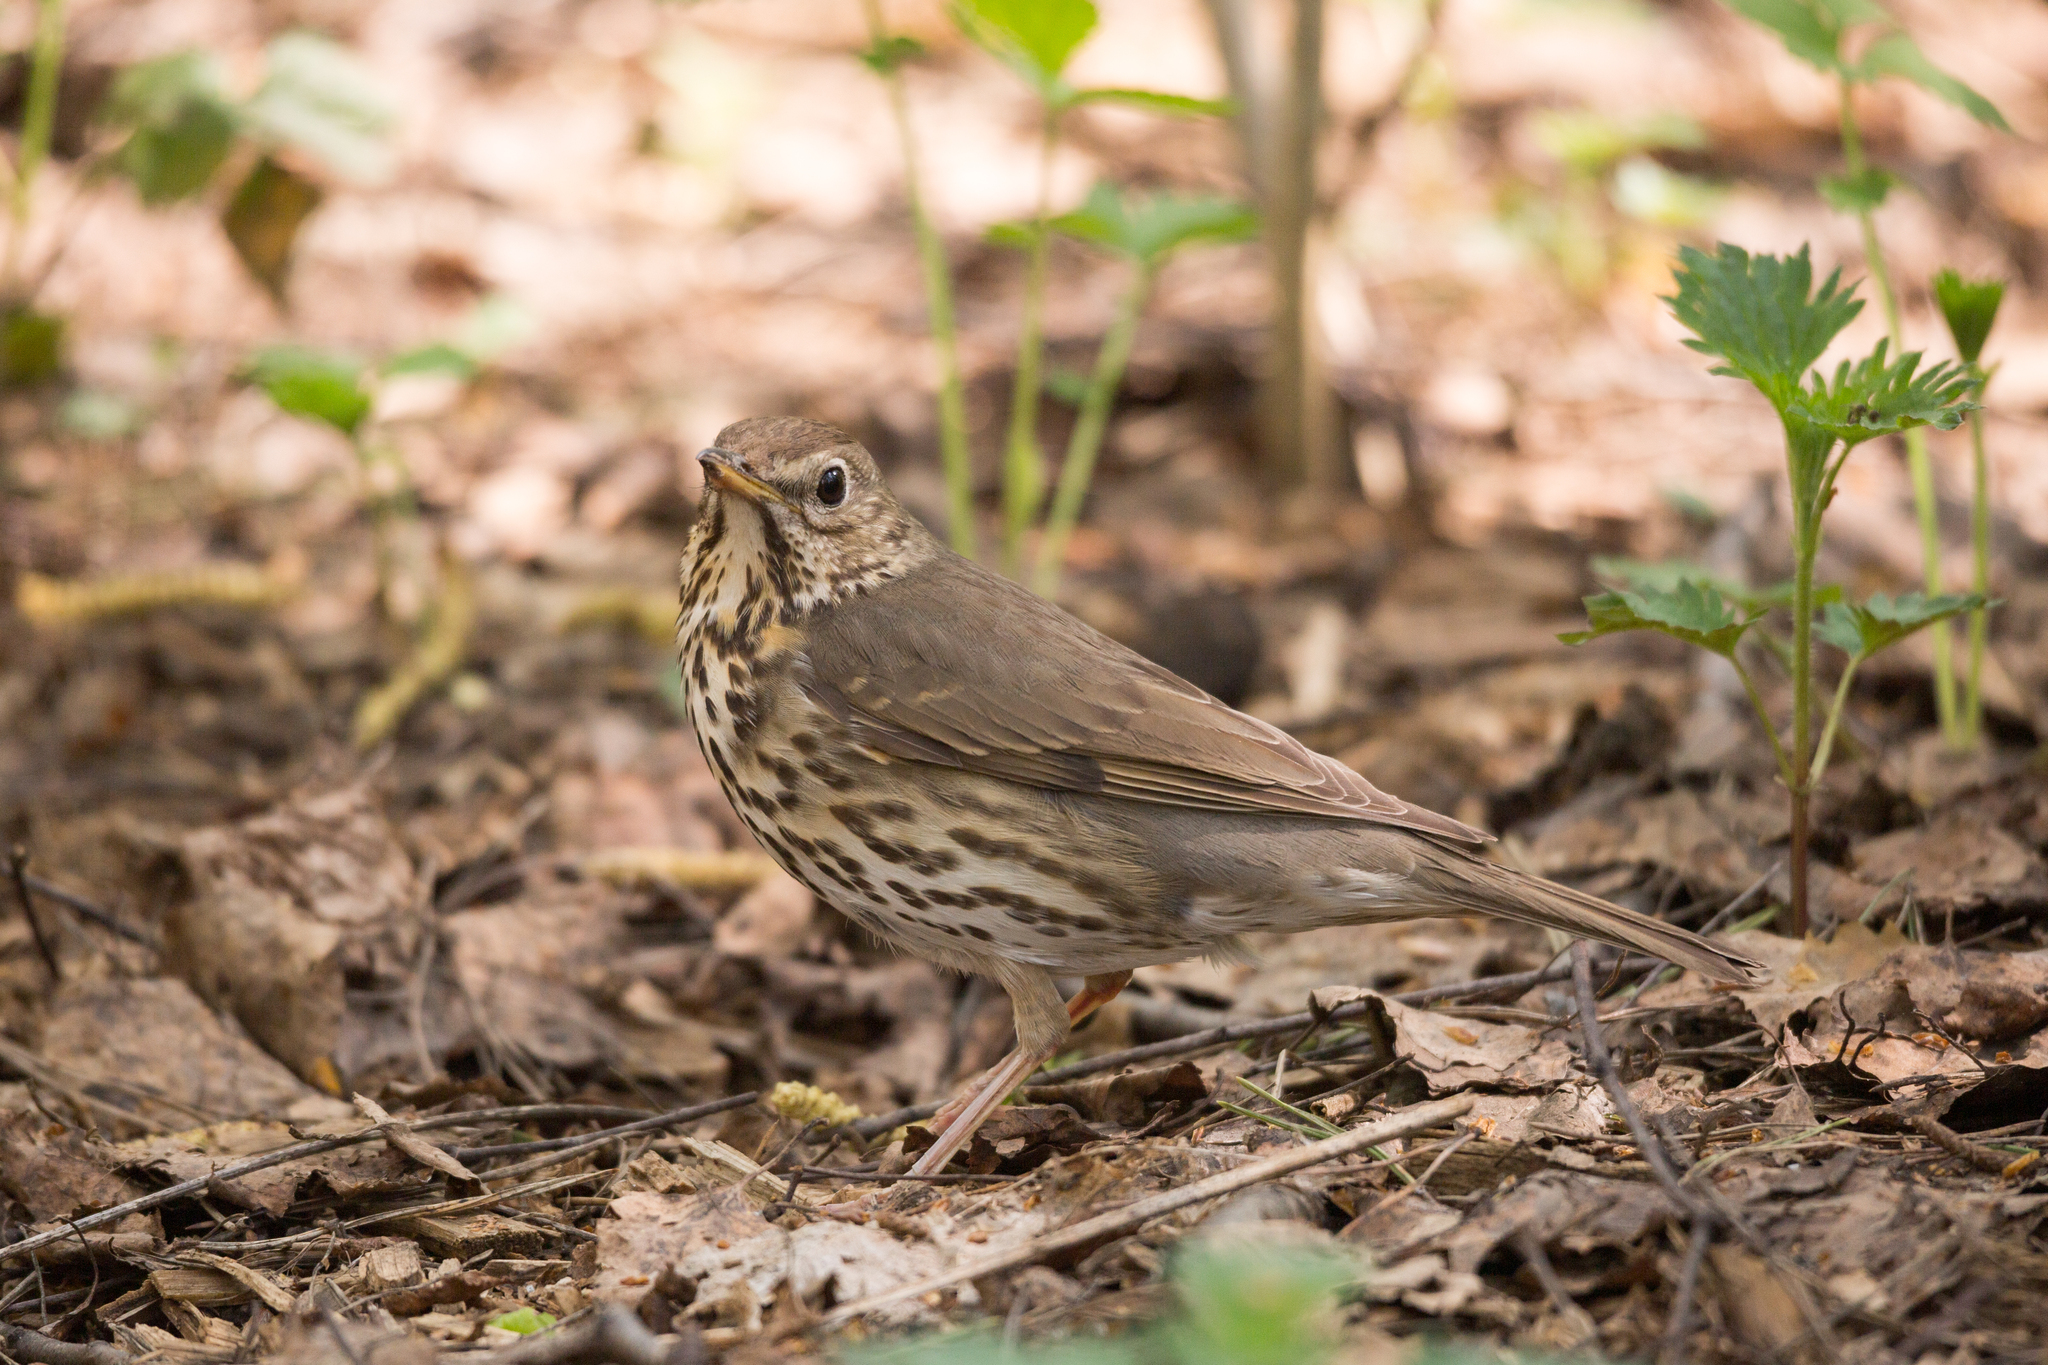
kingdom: Animalia
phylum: Chordata
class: Aves
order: Passeriformes
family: Turdidae
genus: Turdus
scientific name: Turdus philomelos
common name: Song thrush
